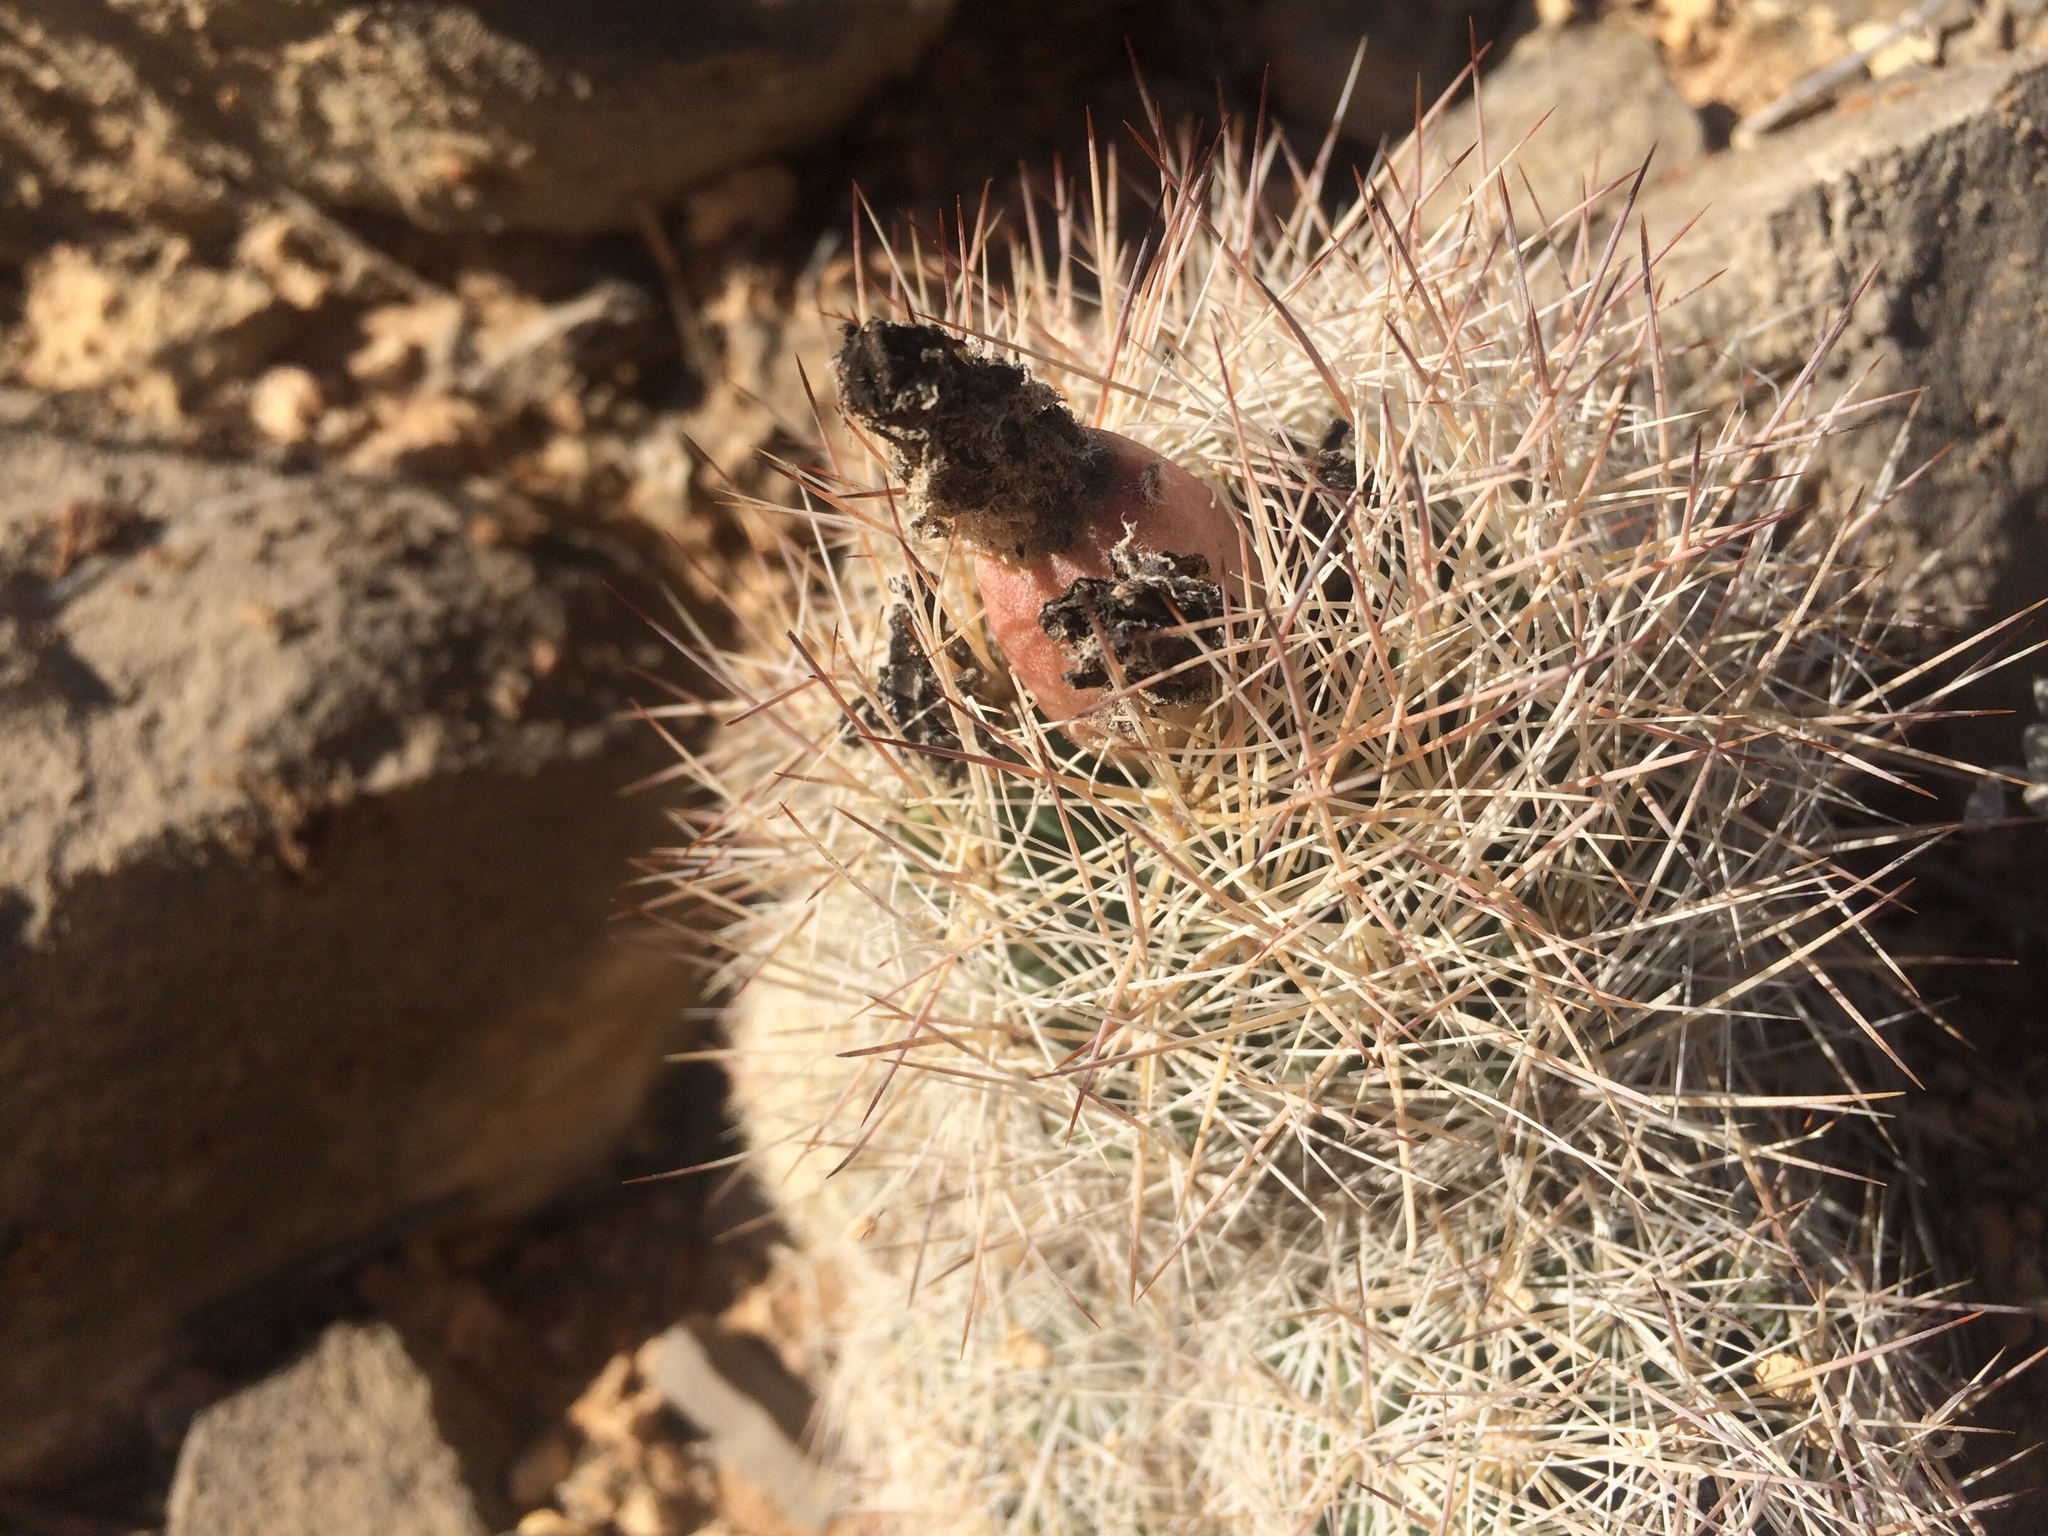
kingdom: Plantae
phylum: Tracheophyta
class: Magnoliopsida
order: Caryophyllales
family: Cactaceae
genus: Escobaria
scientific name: Escobaria
